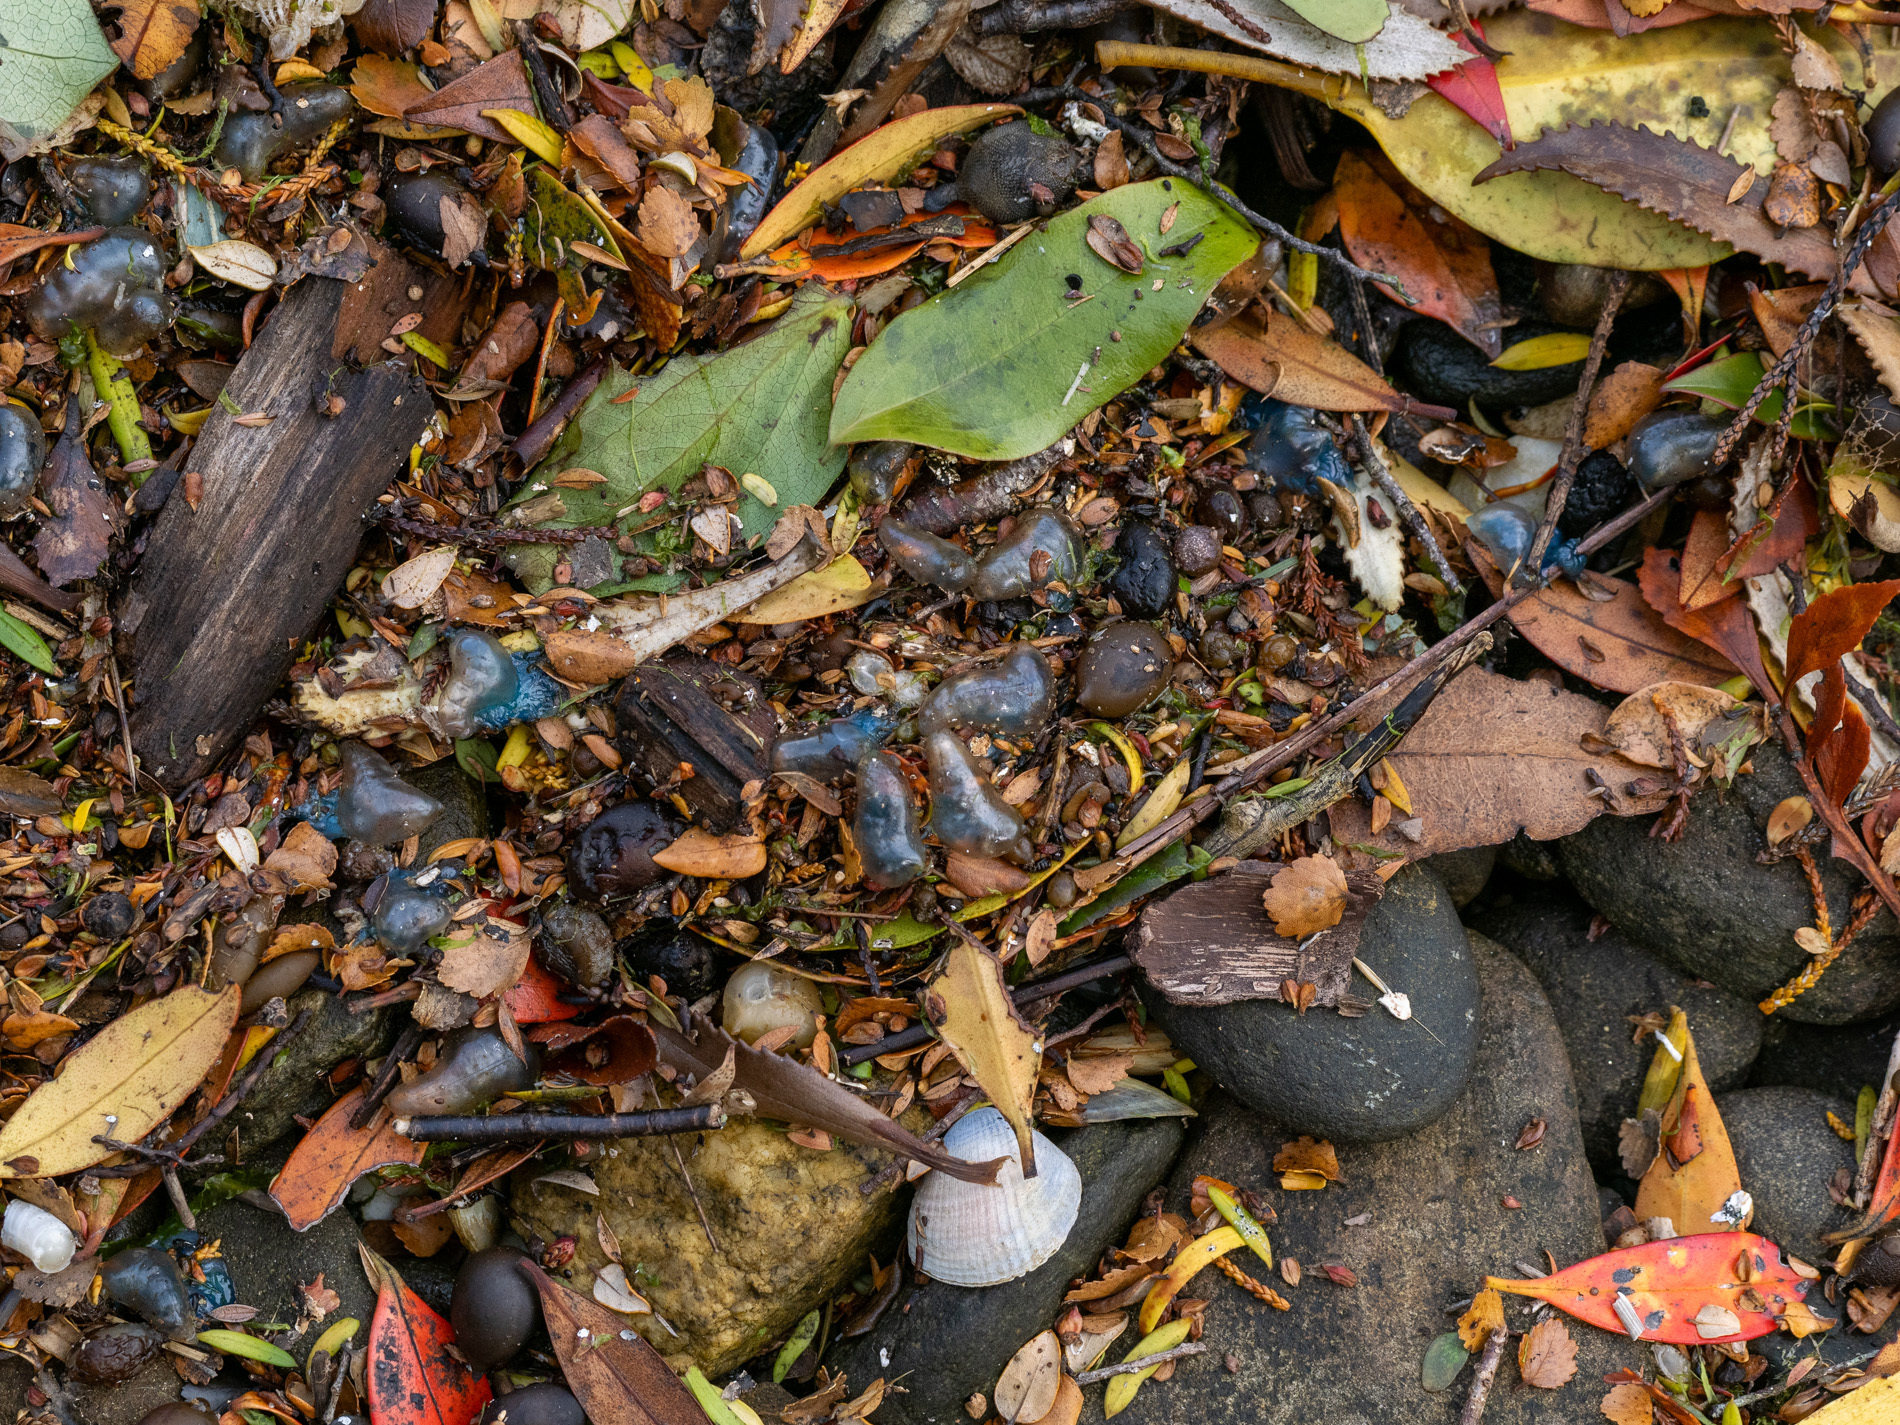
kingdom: Animalia
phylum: Cnidaria
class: Hydrozoa
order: Siphonophorae
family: Physaliidae
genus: Physalia
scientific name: Physalia physalis
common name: Portuguese man-of-war
